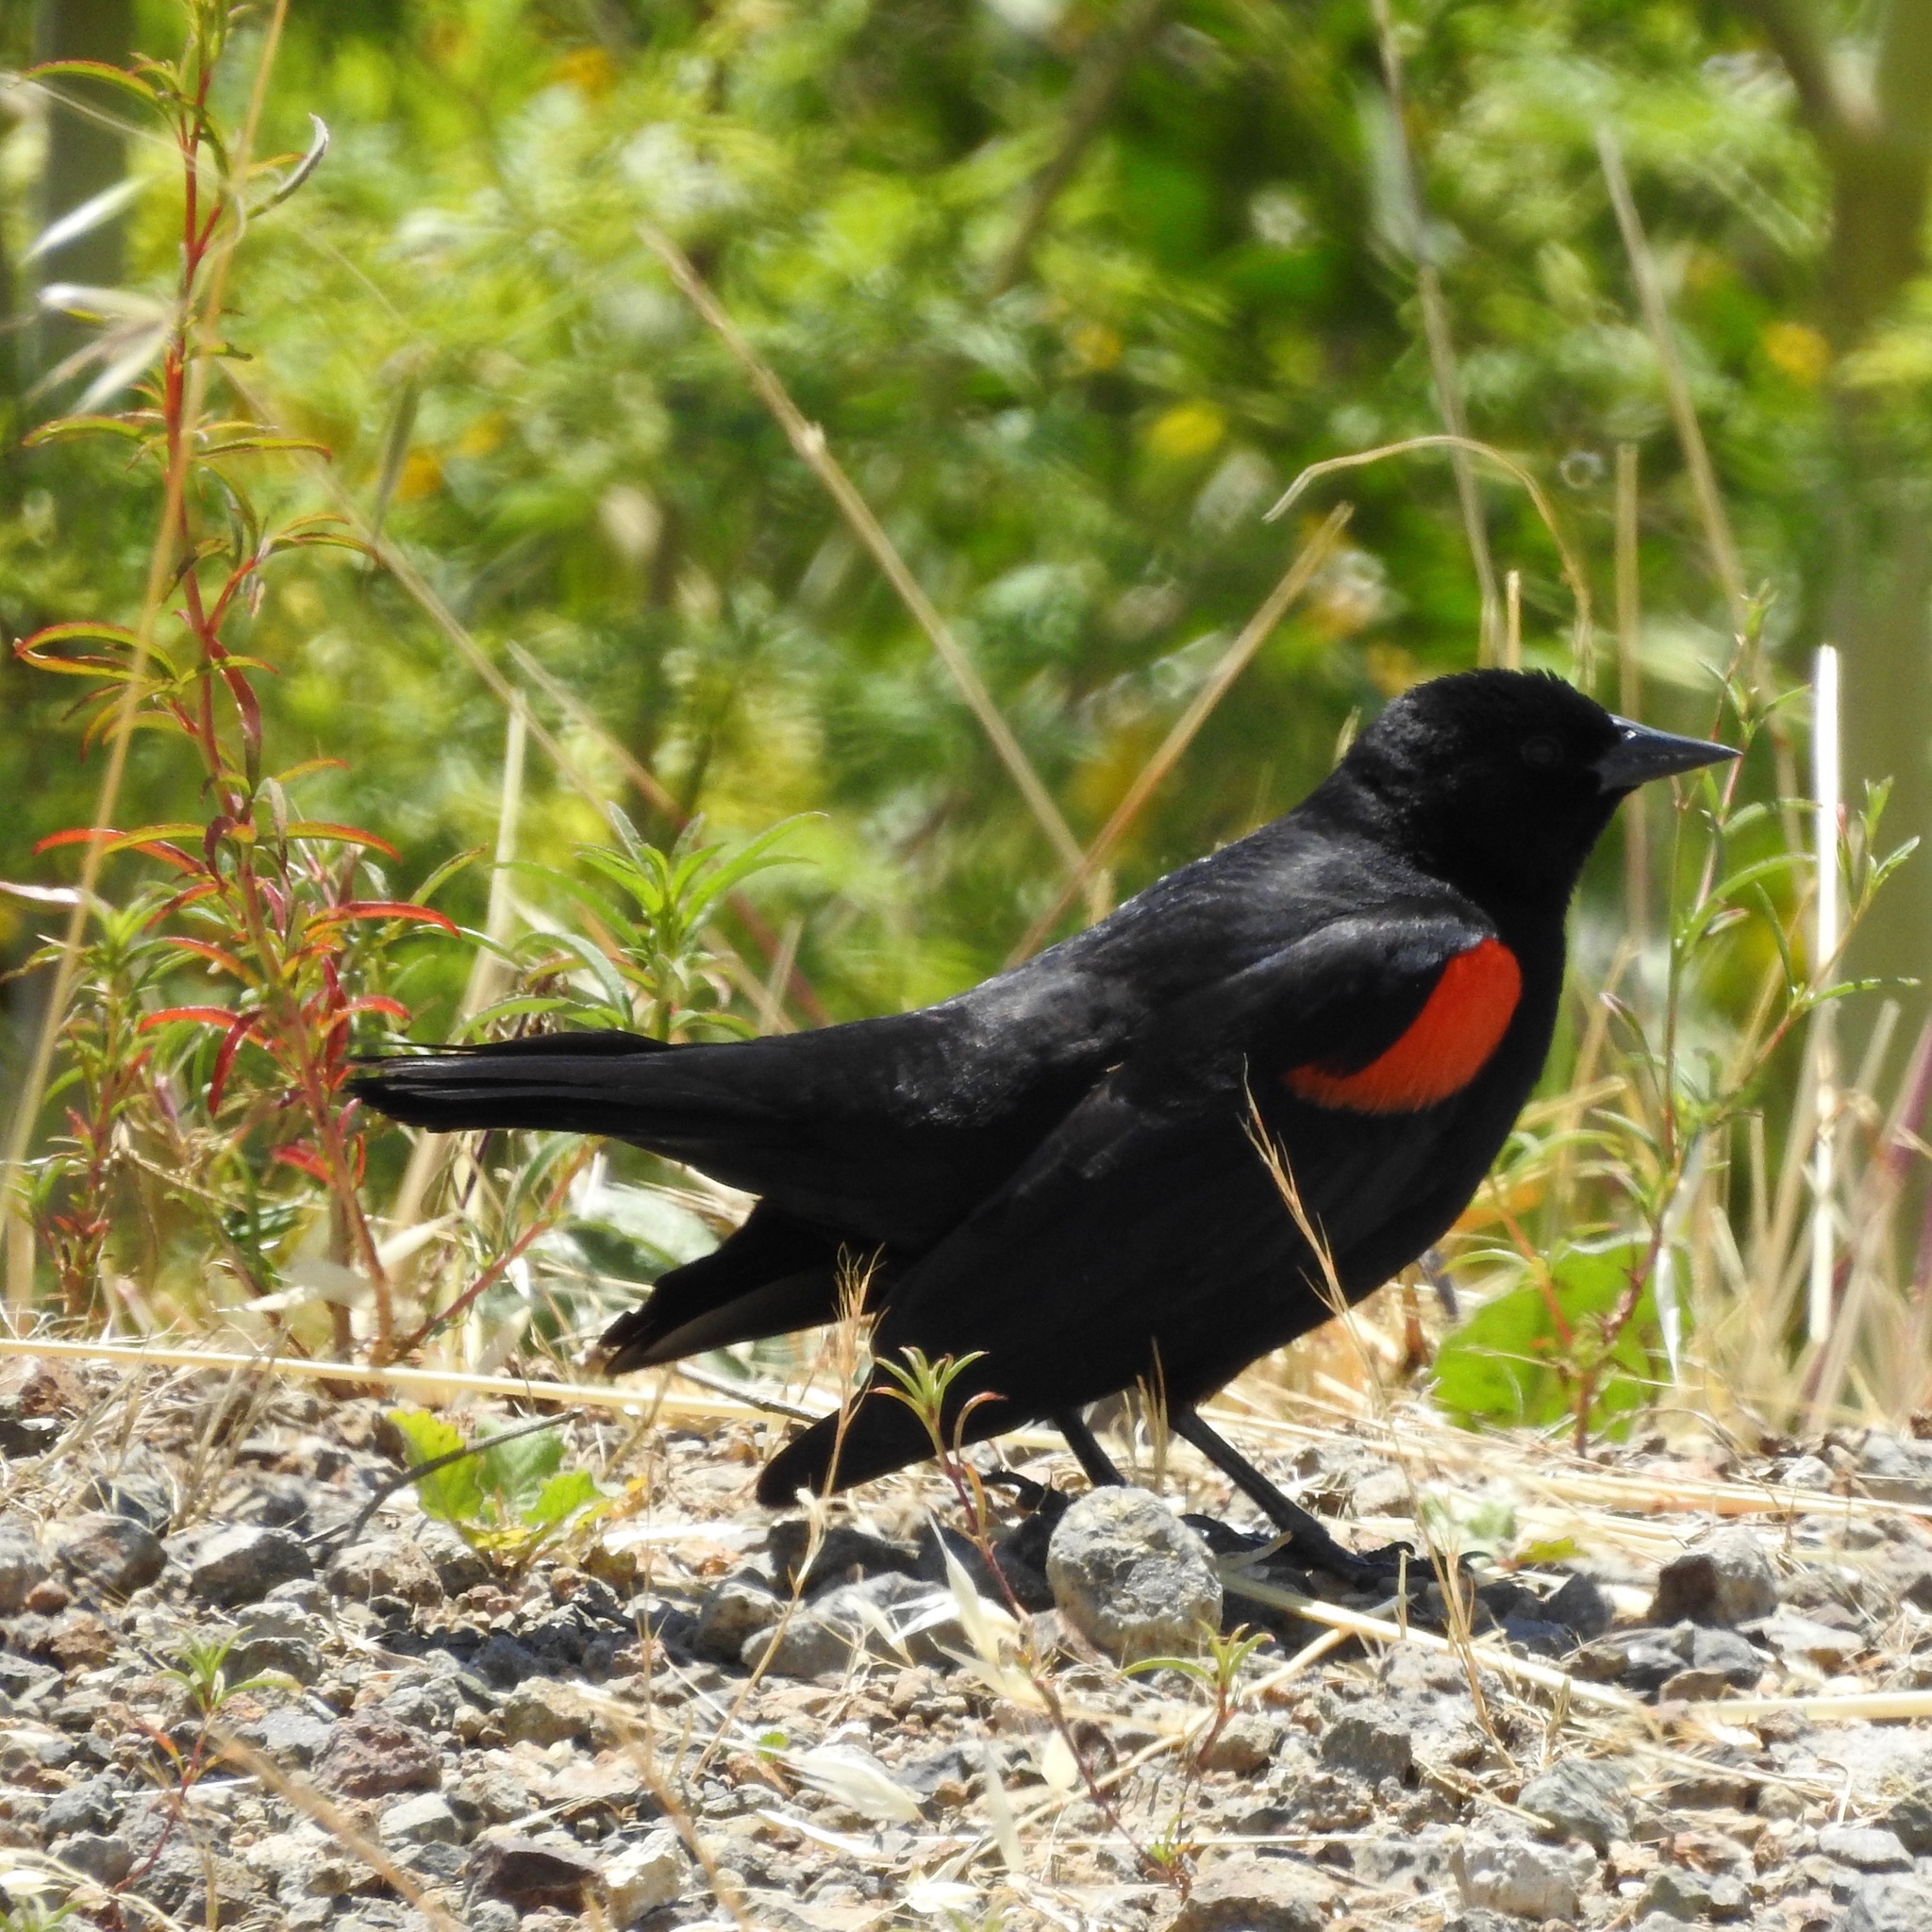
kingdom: Animalia
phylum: Chordata
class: Aves
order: Passeriformes
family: Icteridae
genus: Agelaius
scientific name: Agelaius phoeniceus
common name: Red-winged blackbird
